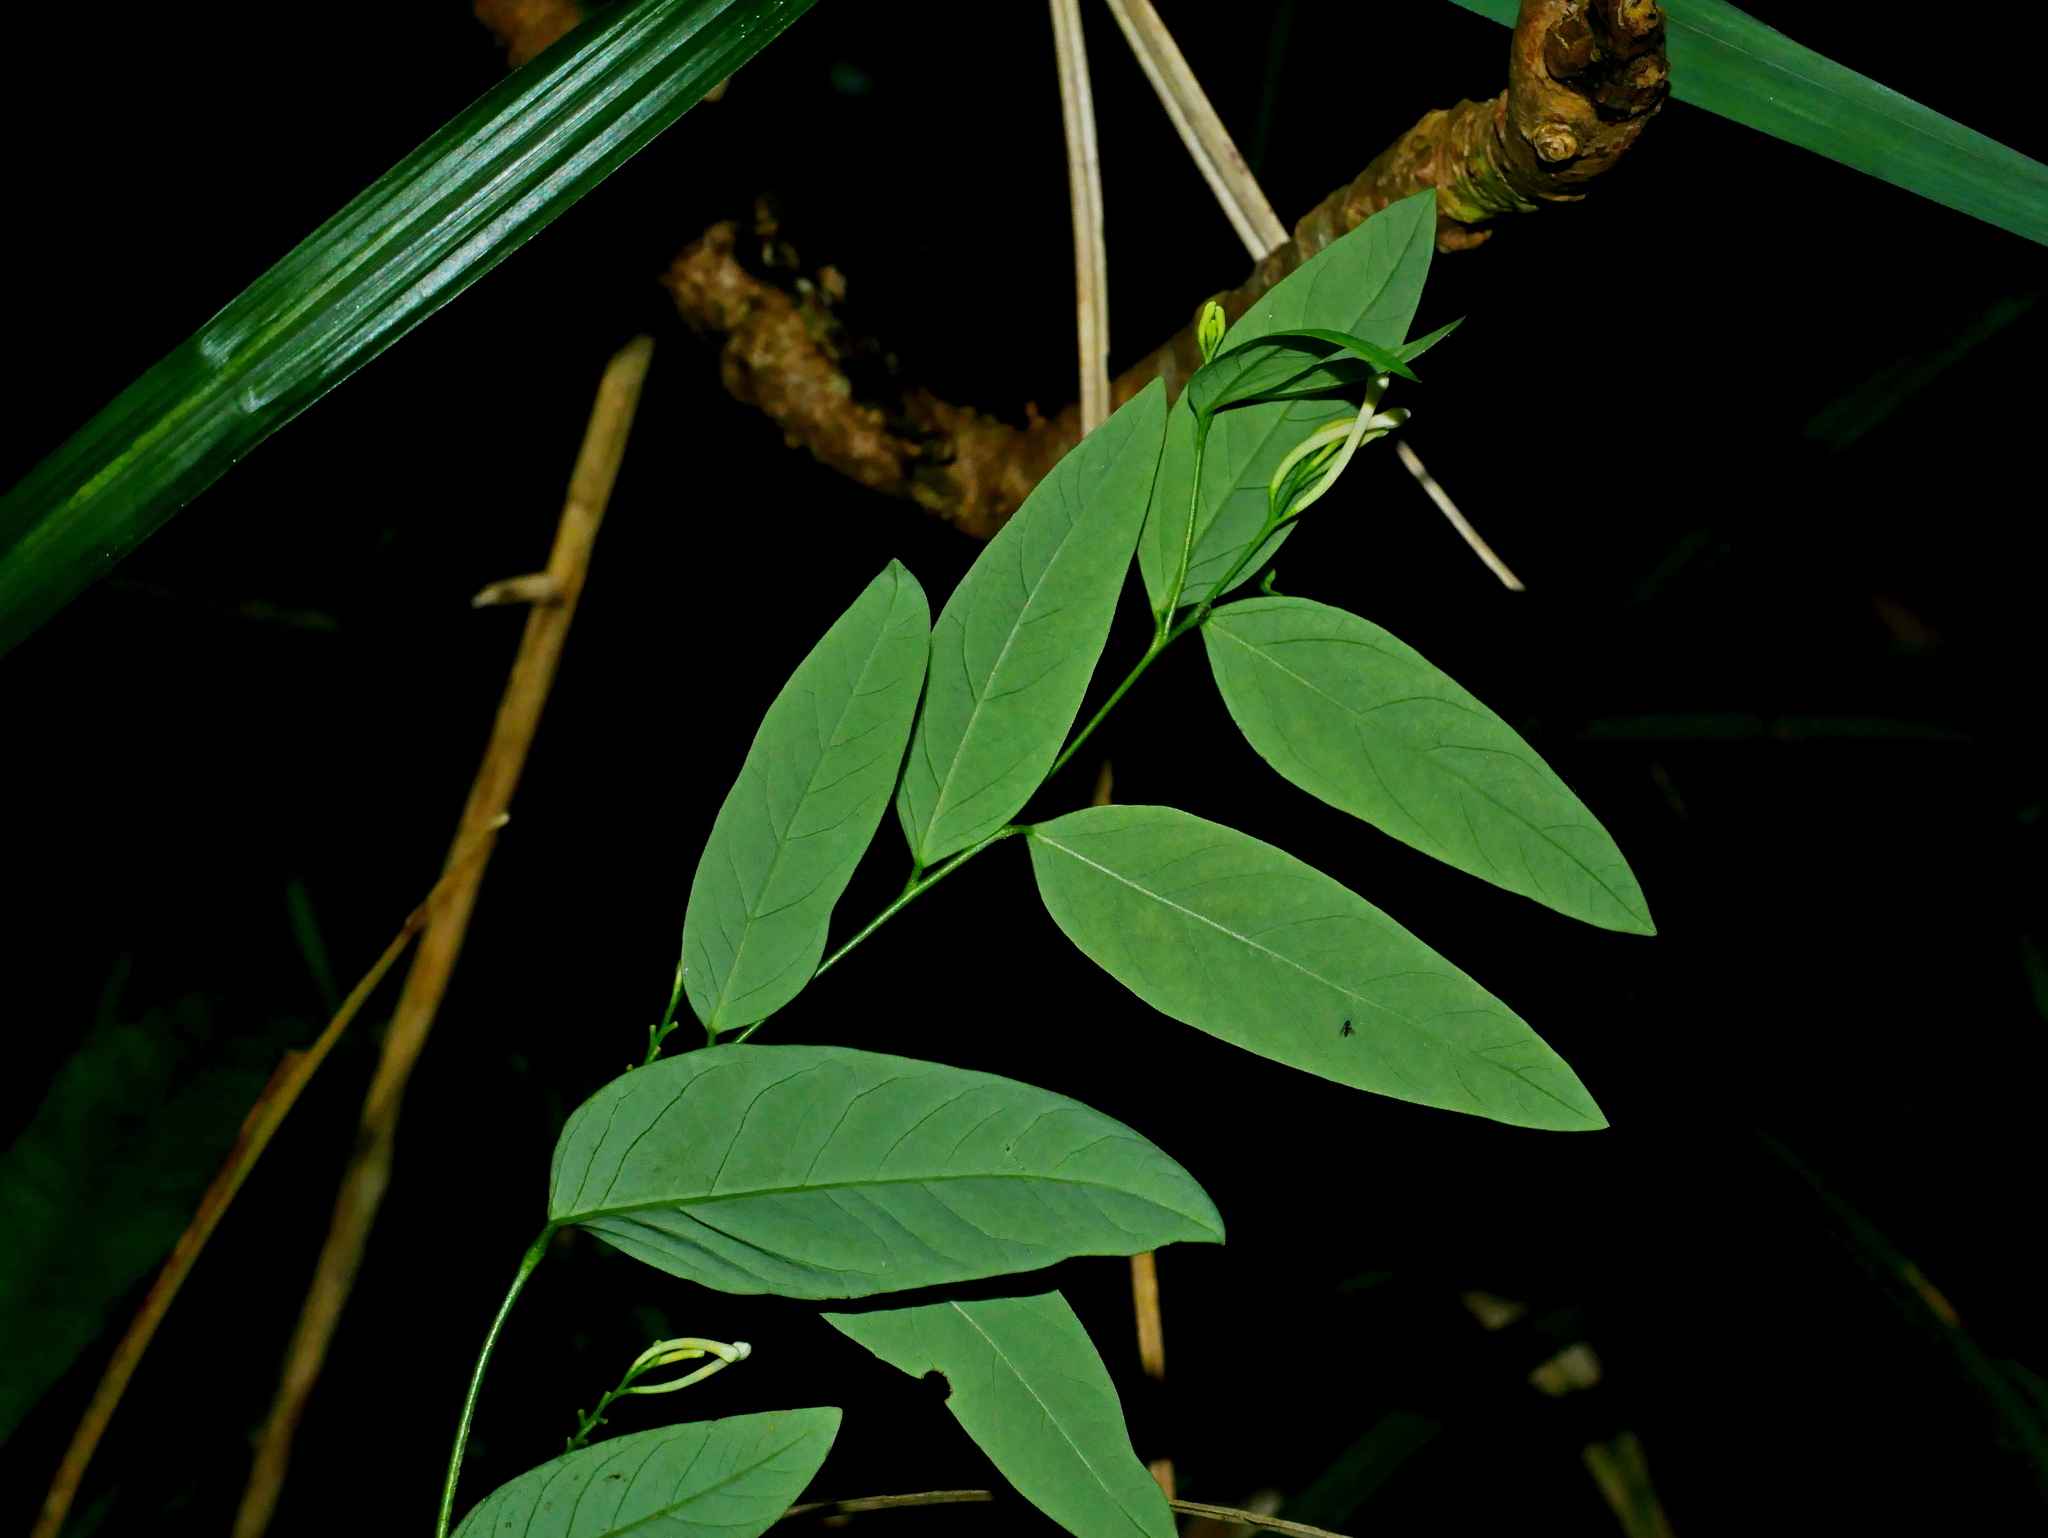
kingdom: Plantae
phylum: Tracheophyta
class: Magnoliopsida
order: Malvales
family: Thymelaeaceae
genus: Wikstroemia
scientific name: Wikstroemia mononectaria
